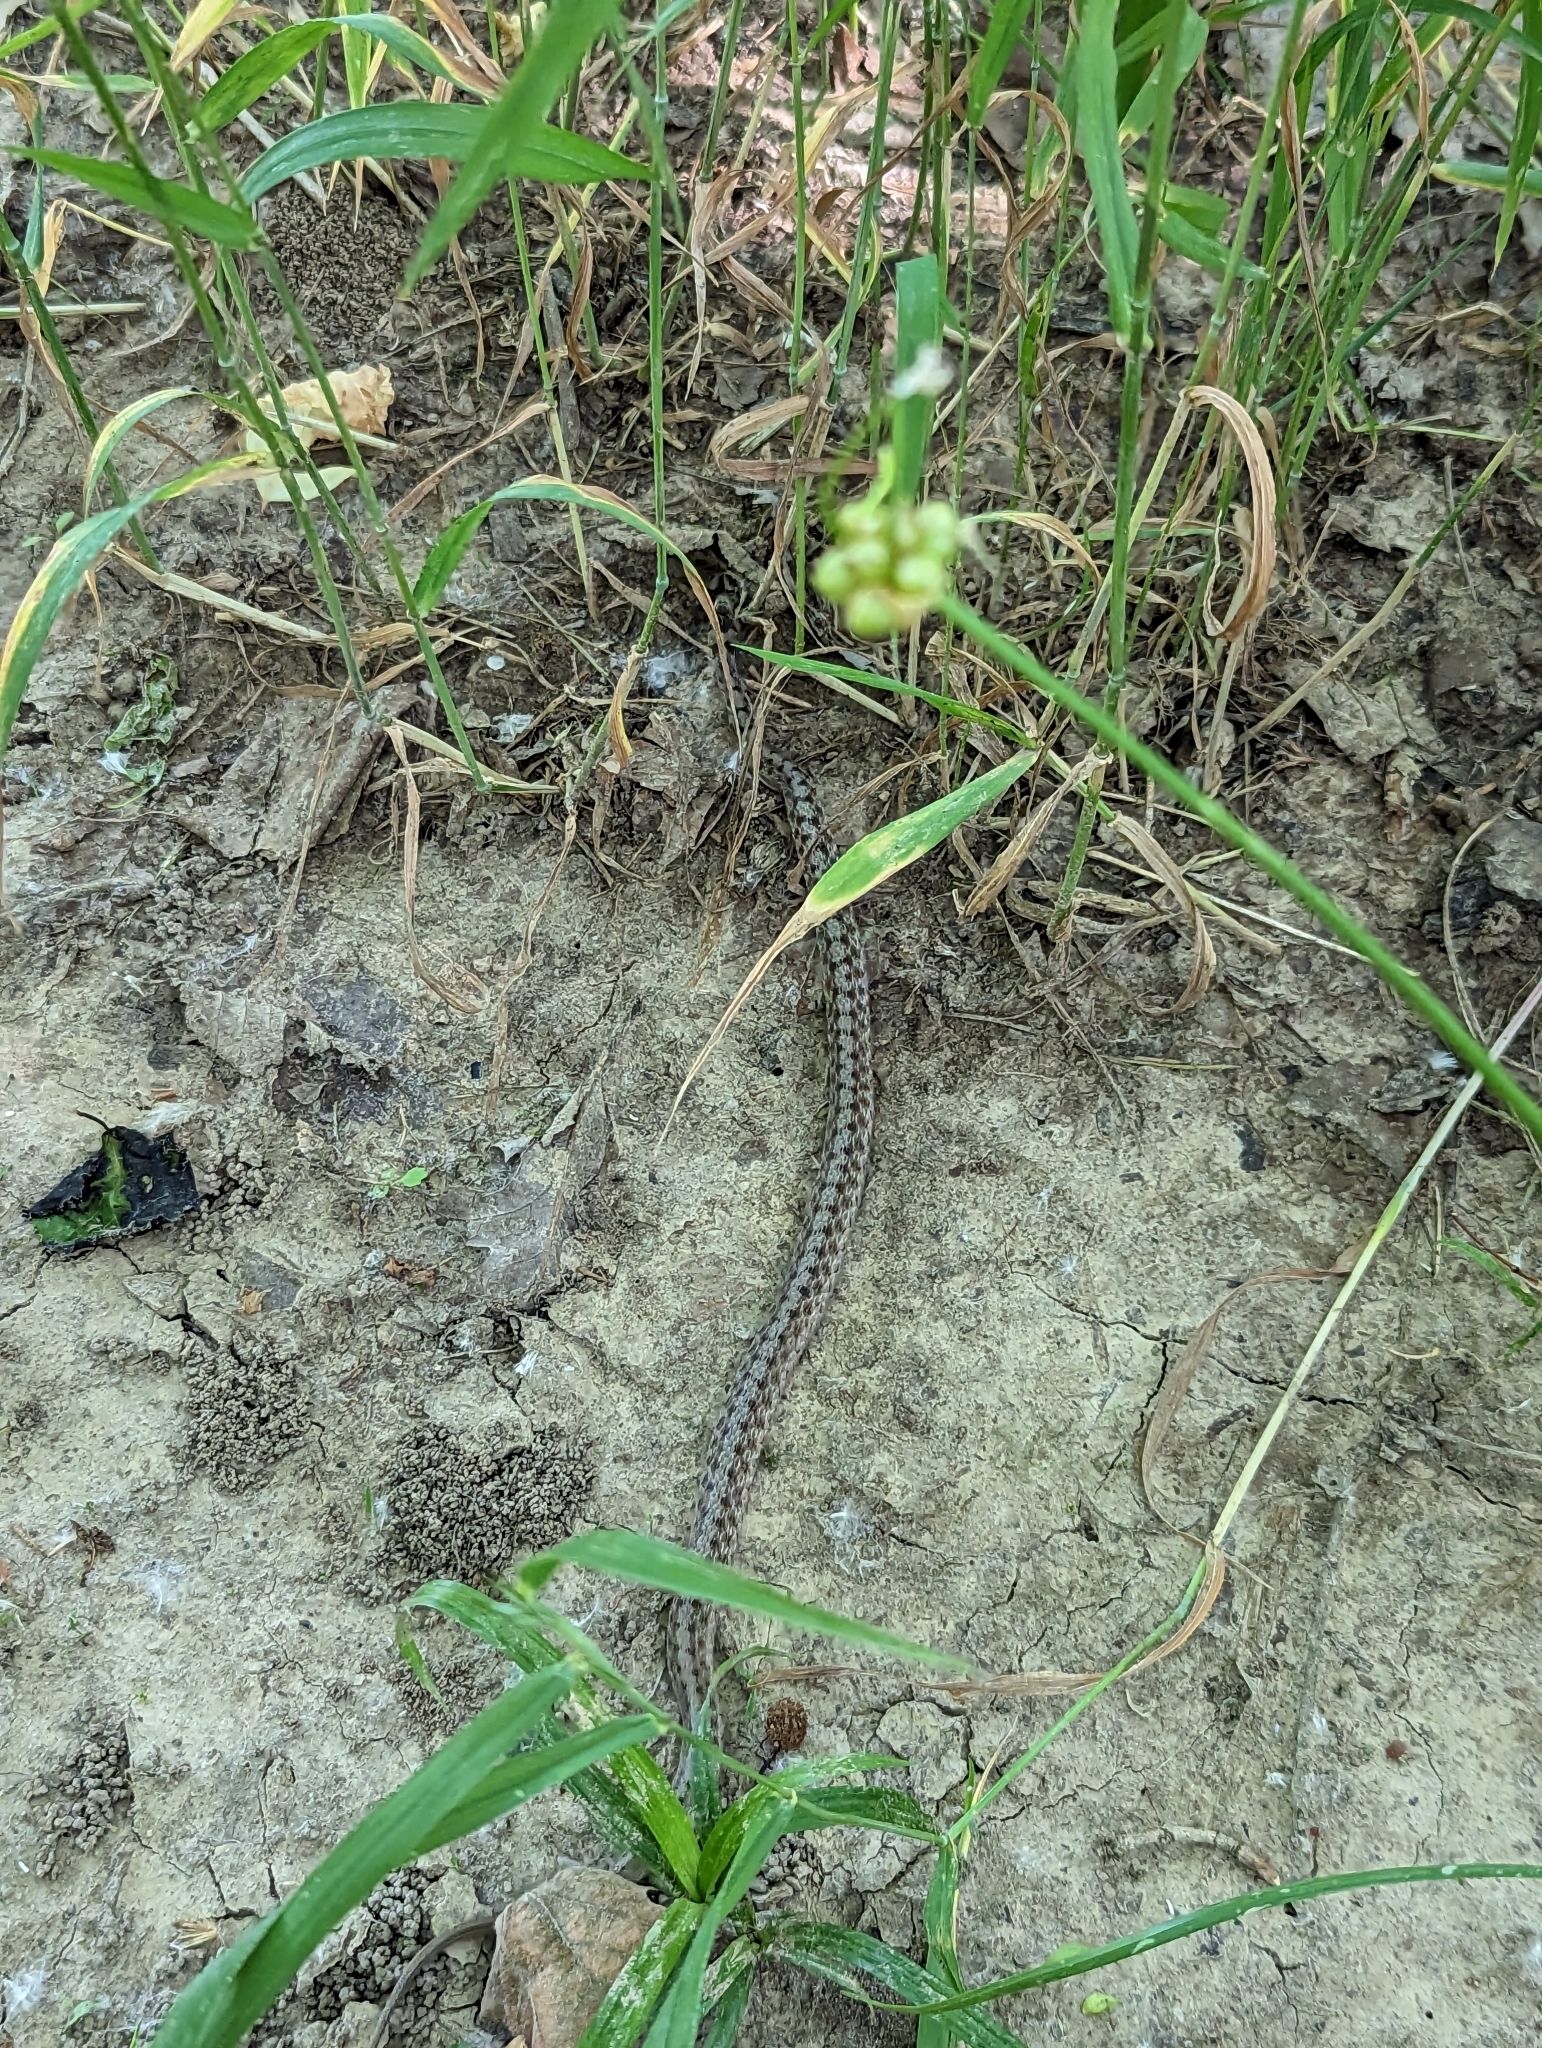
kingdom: Animalia
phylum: Chordata
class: Squamata
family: Colubridae
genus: Storeria
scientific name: Storeria dekayi
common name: (dekay’s) brown snake
